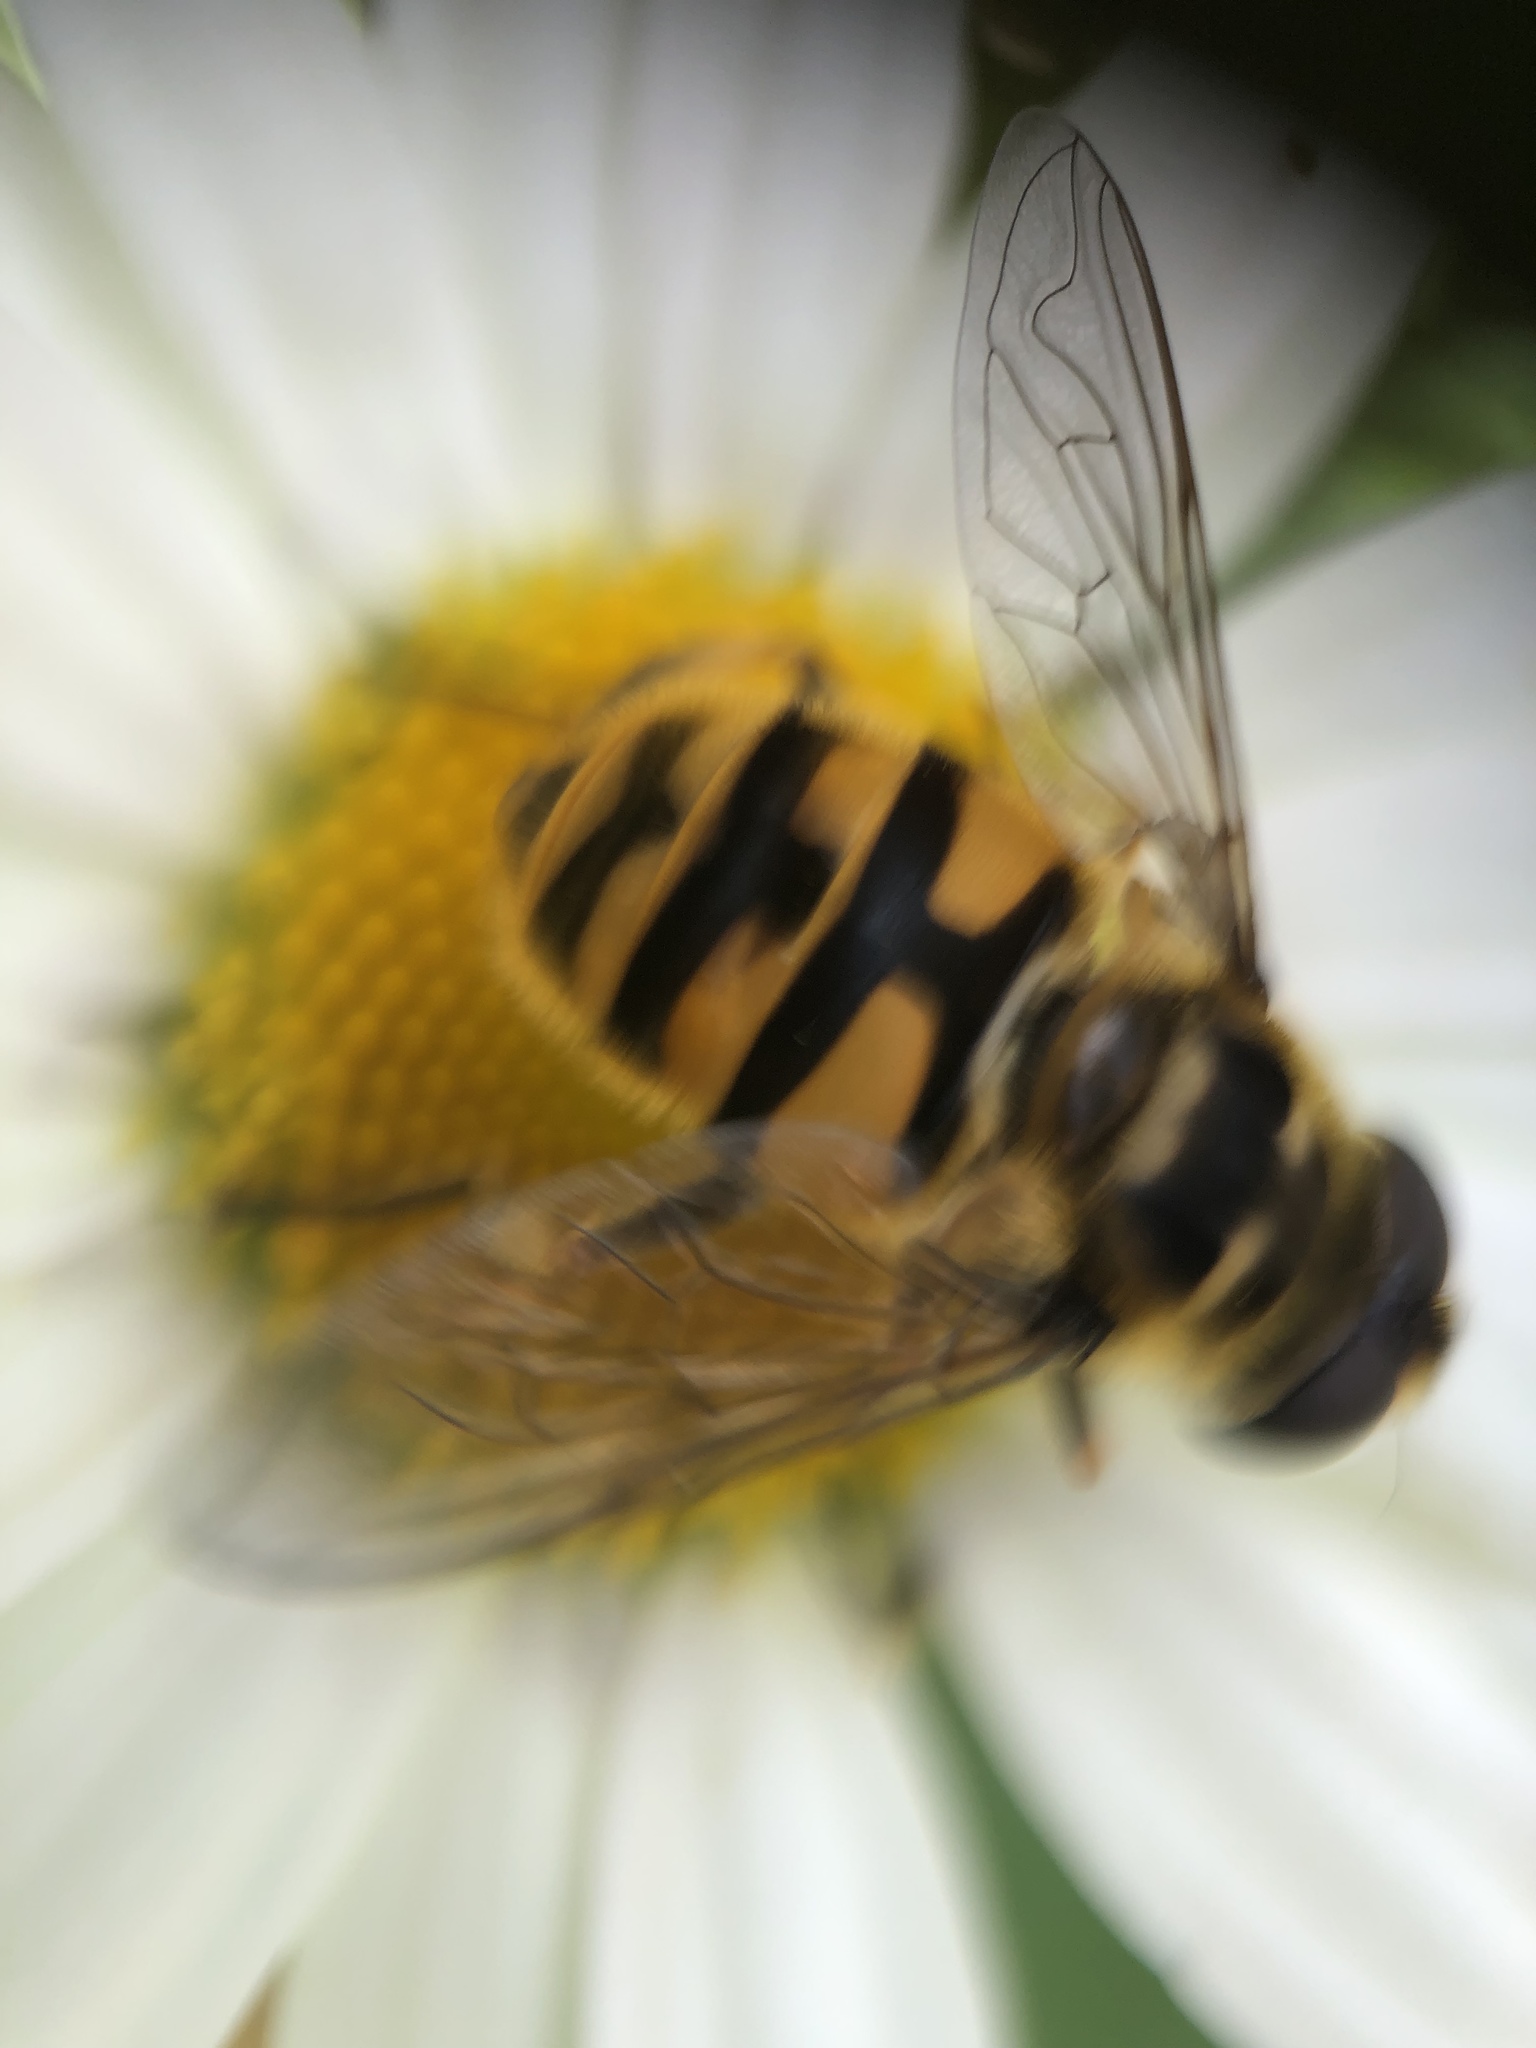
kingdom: Animalia
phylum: Arthropoda
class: Insecta
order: Diptera
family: Syrphidae
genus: Myathropa
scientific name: Myathropa florea
